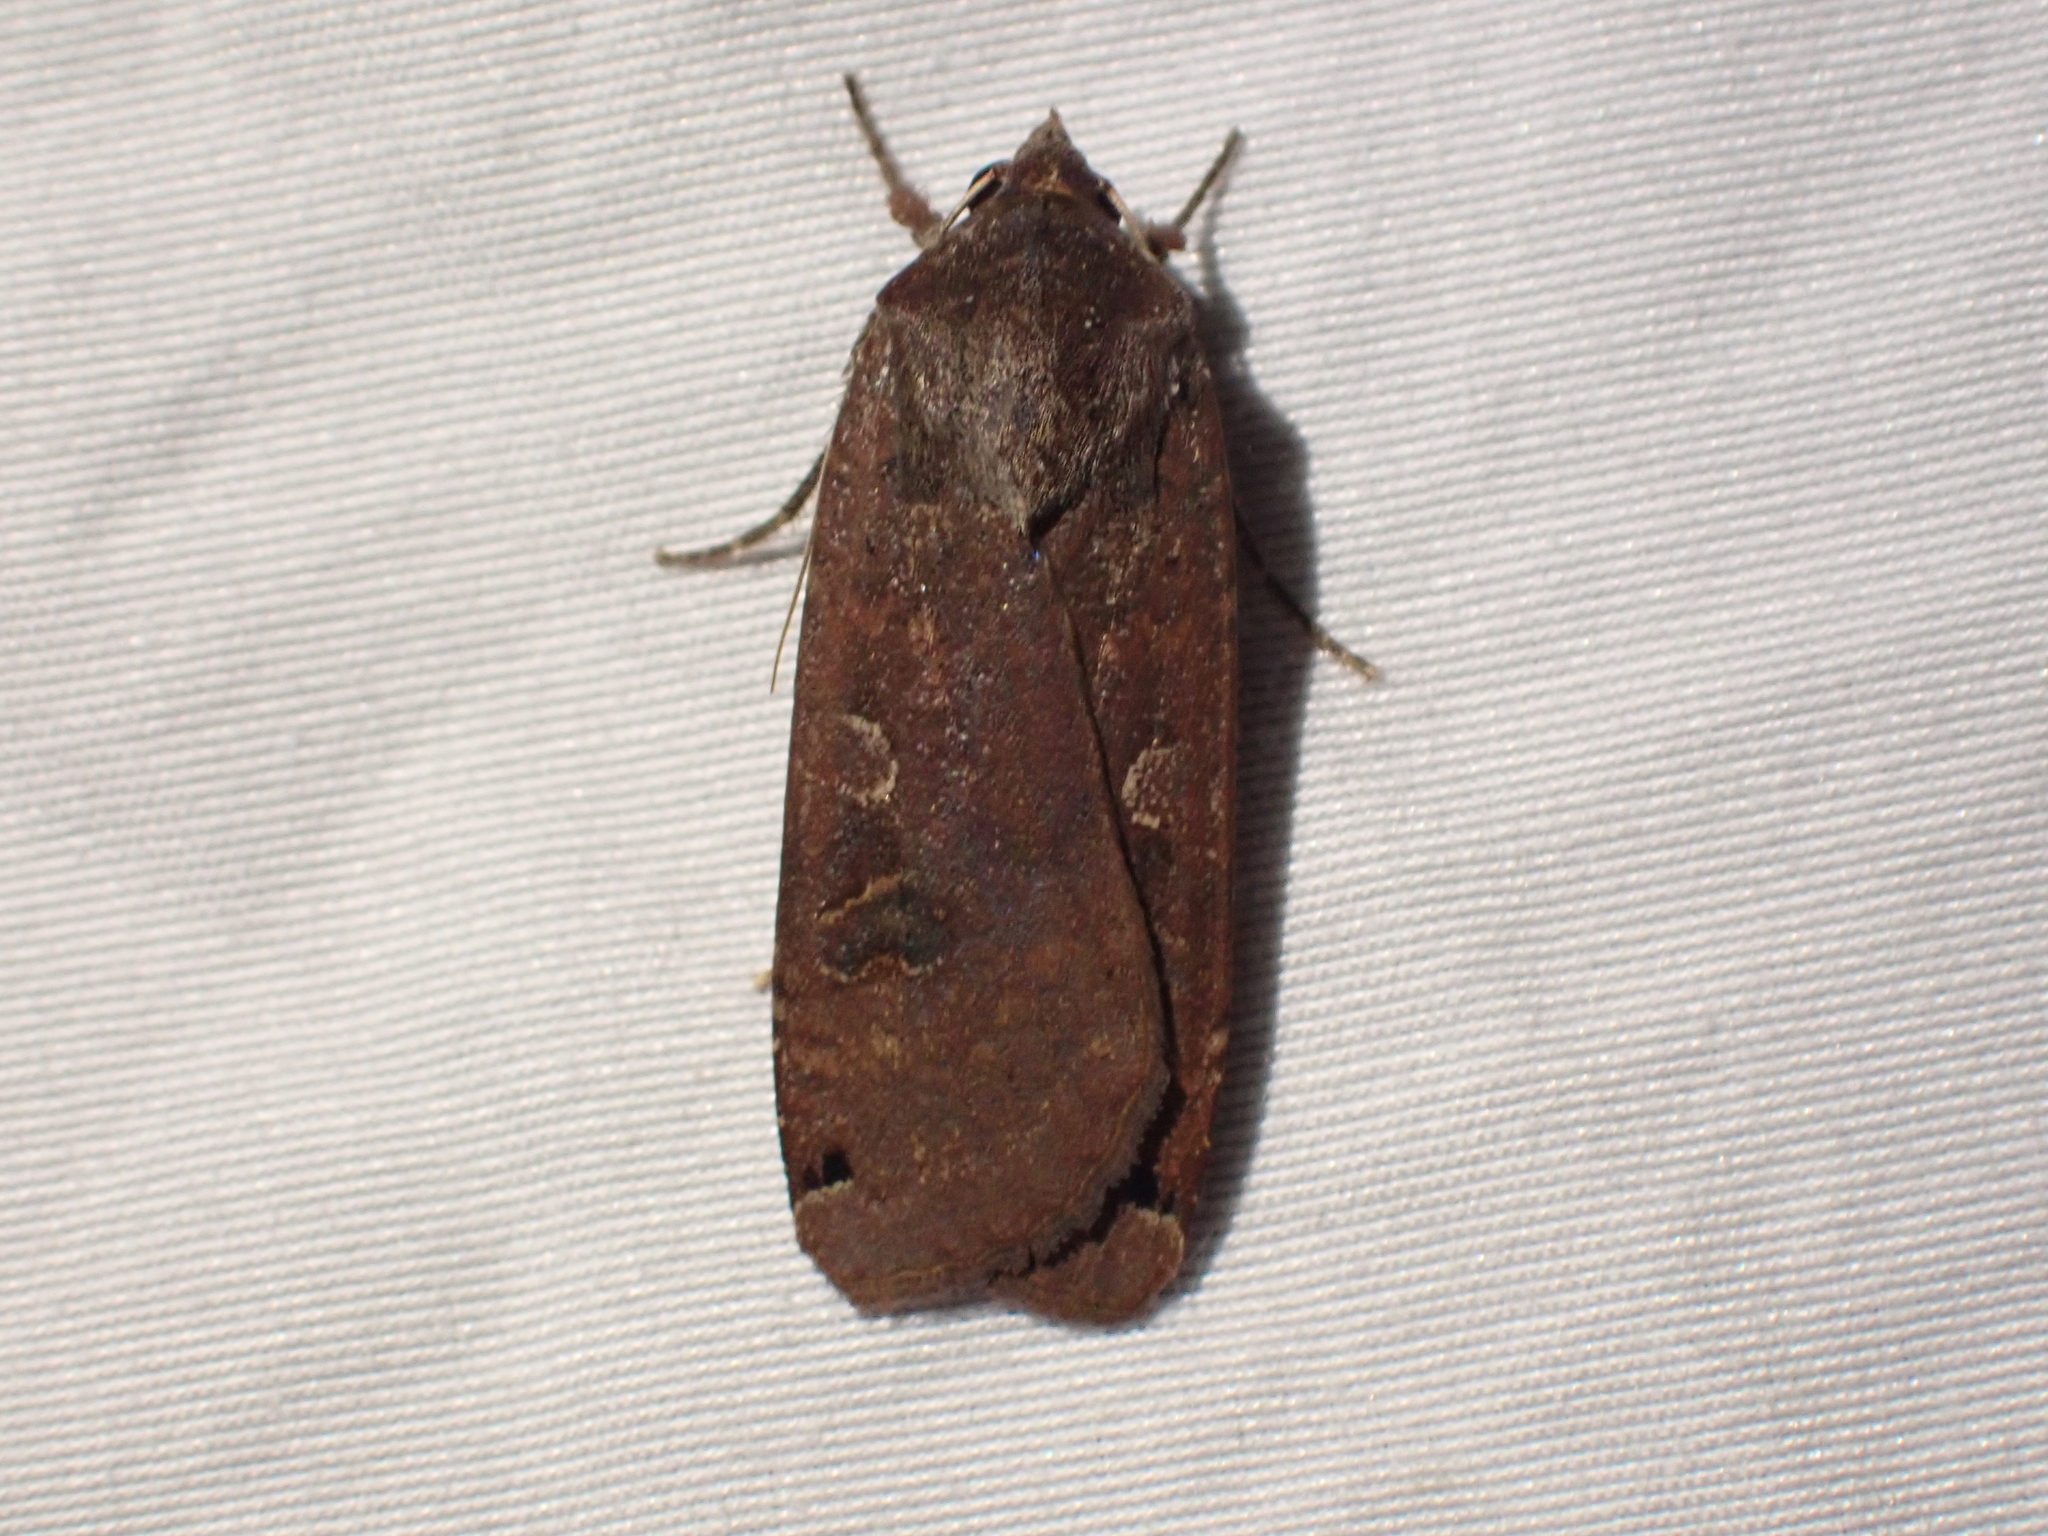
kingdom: Animalia
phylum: Arthropoda
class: Insecta
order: Lepidoptera
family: Noctuidae
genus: Noctua
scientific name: Noctua pronuba
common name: Large yellow underwing
